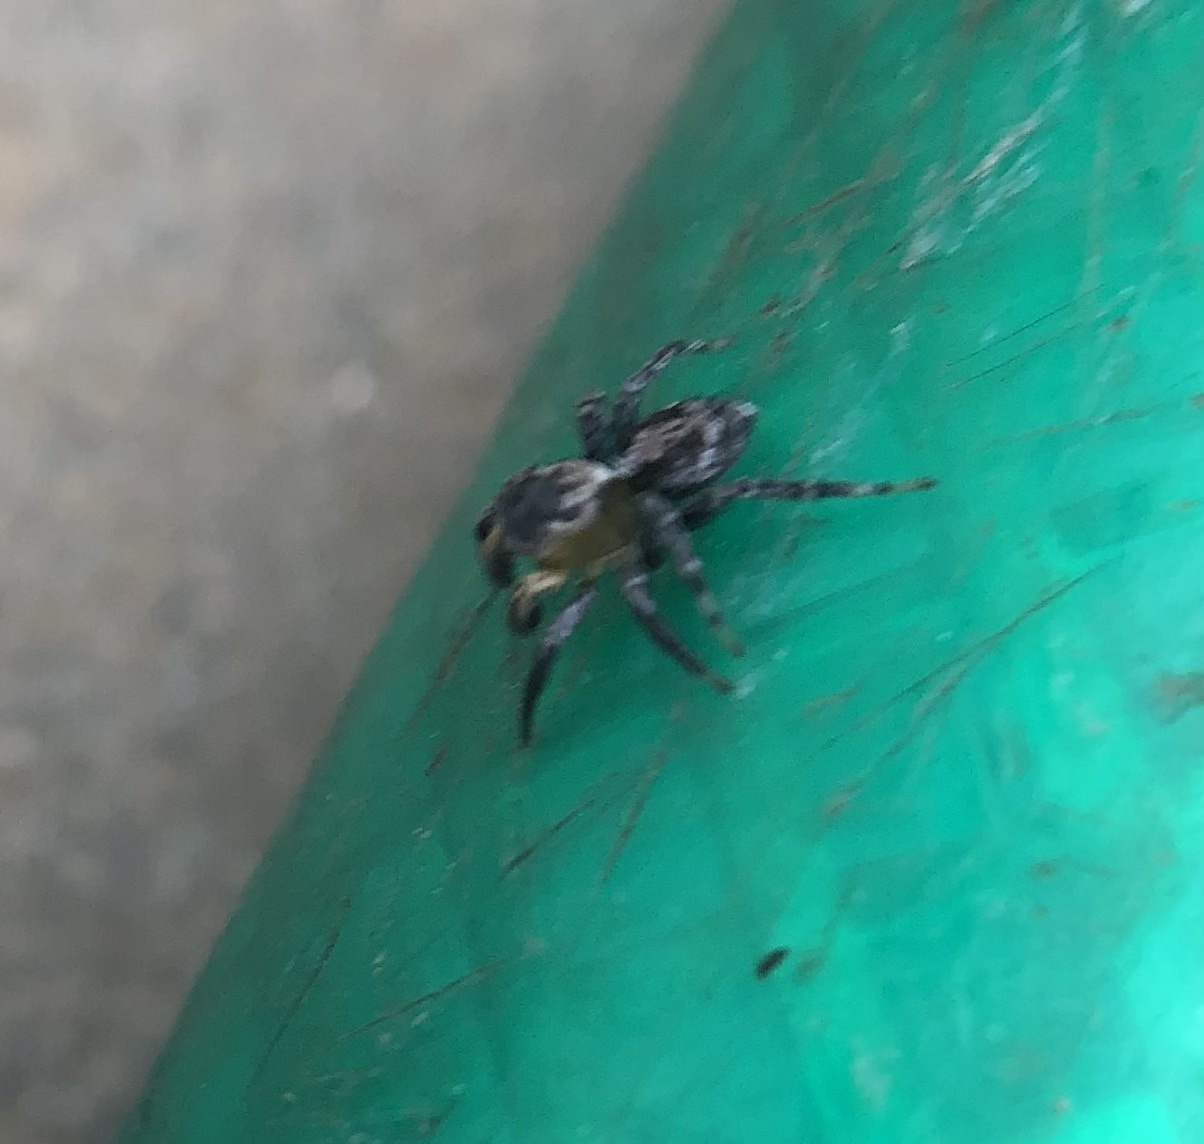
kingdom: Animalia
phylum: Arthropoda
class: Arachnida
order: Araneae
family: Salticidae
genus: Naphrys
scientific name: Naphrys pulex
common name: Flea jumping spider
